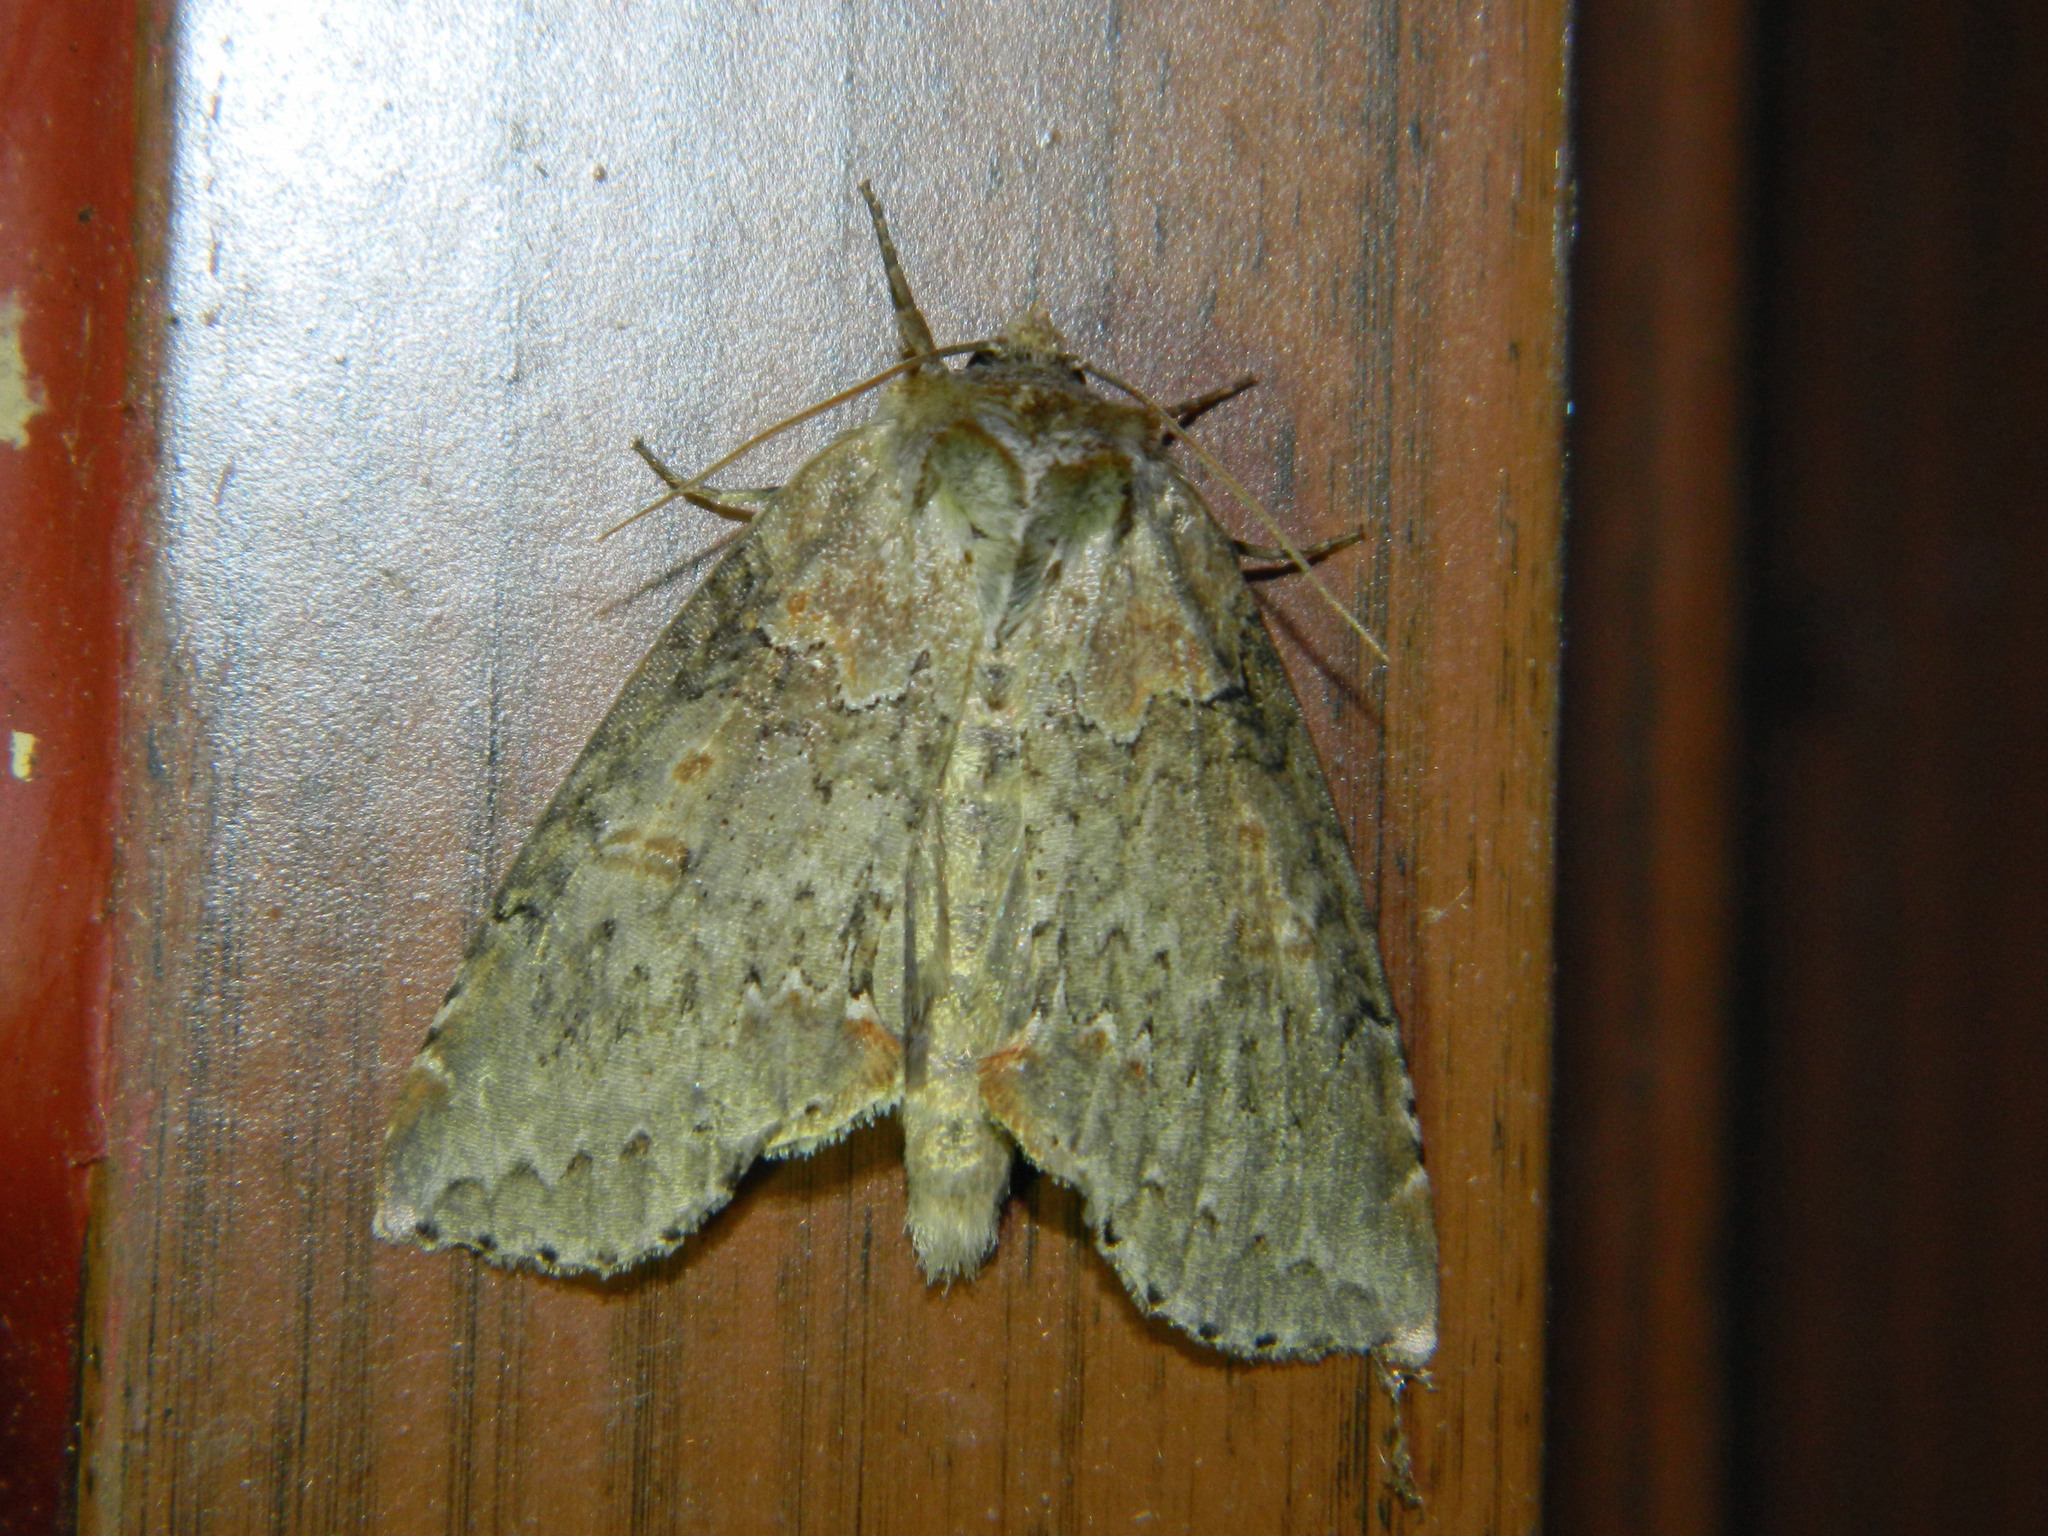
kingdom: Animalia
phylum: Arthropoda
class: Insecta
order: Lepidoptera
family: Drepanidae
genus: Pseudothyatira
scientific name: Pseudothyatira cymatophoroides
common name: Tufted thyatirid moth
